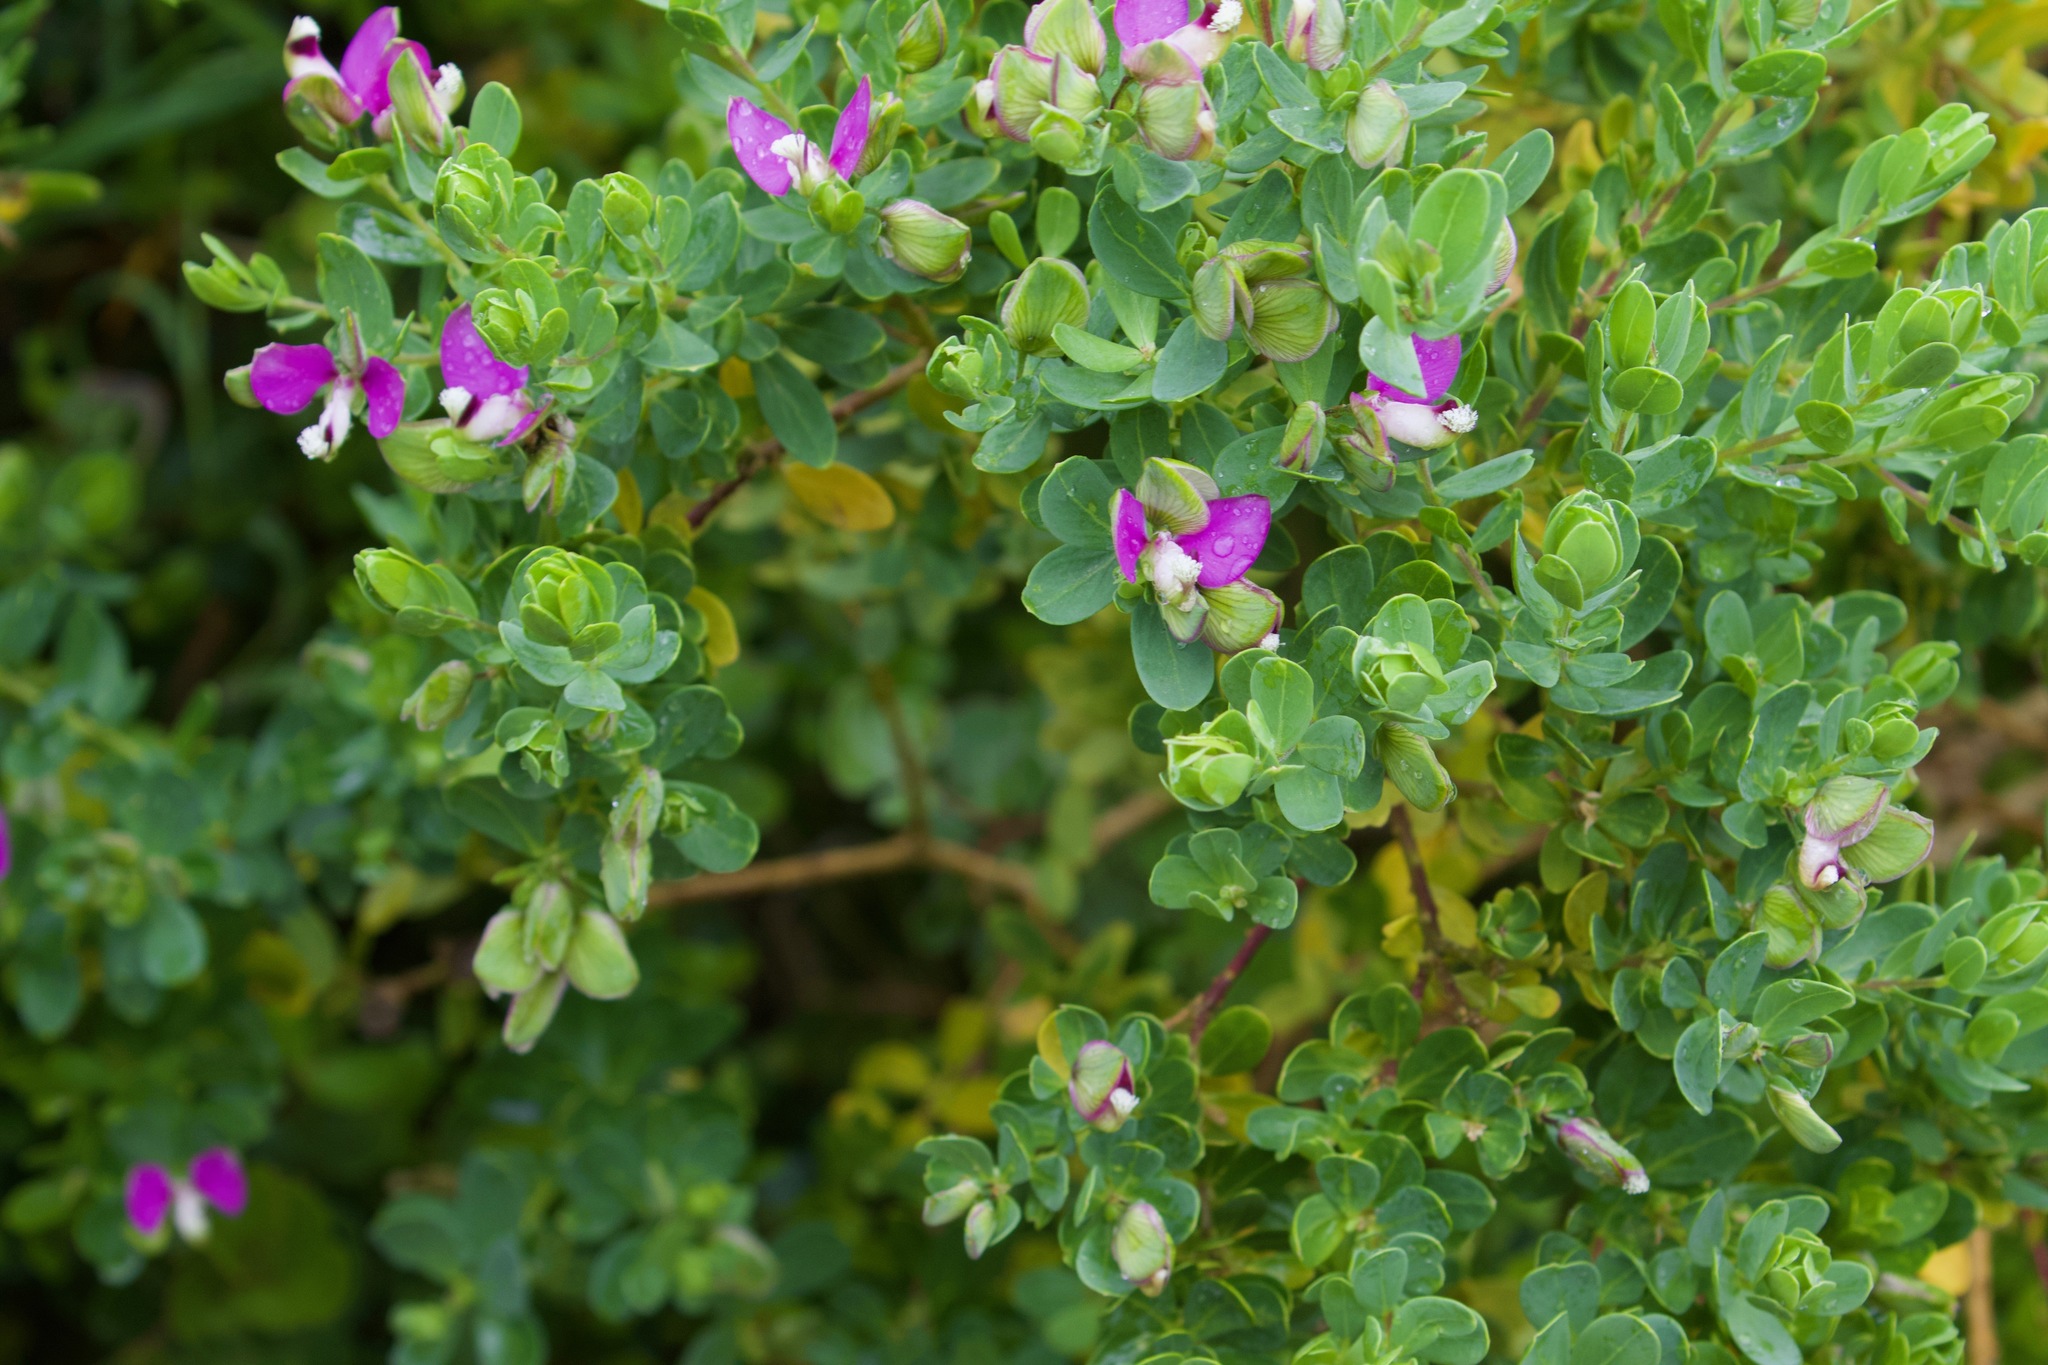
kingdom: Plantae
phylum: Tracheophyta
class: Magnoliopsida
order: Fabales
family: Polygalaceae
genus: Polygala
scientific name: Polygala myrtifolia
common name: Myrtle-leaf milkwort
